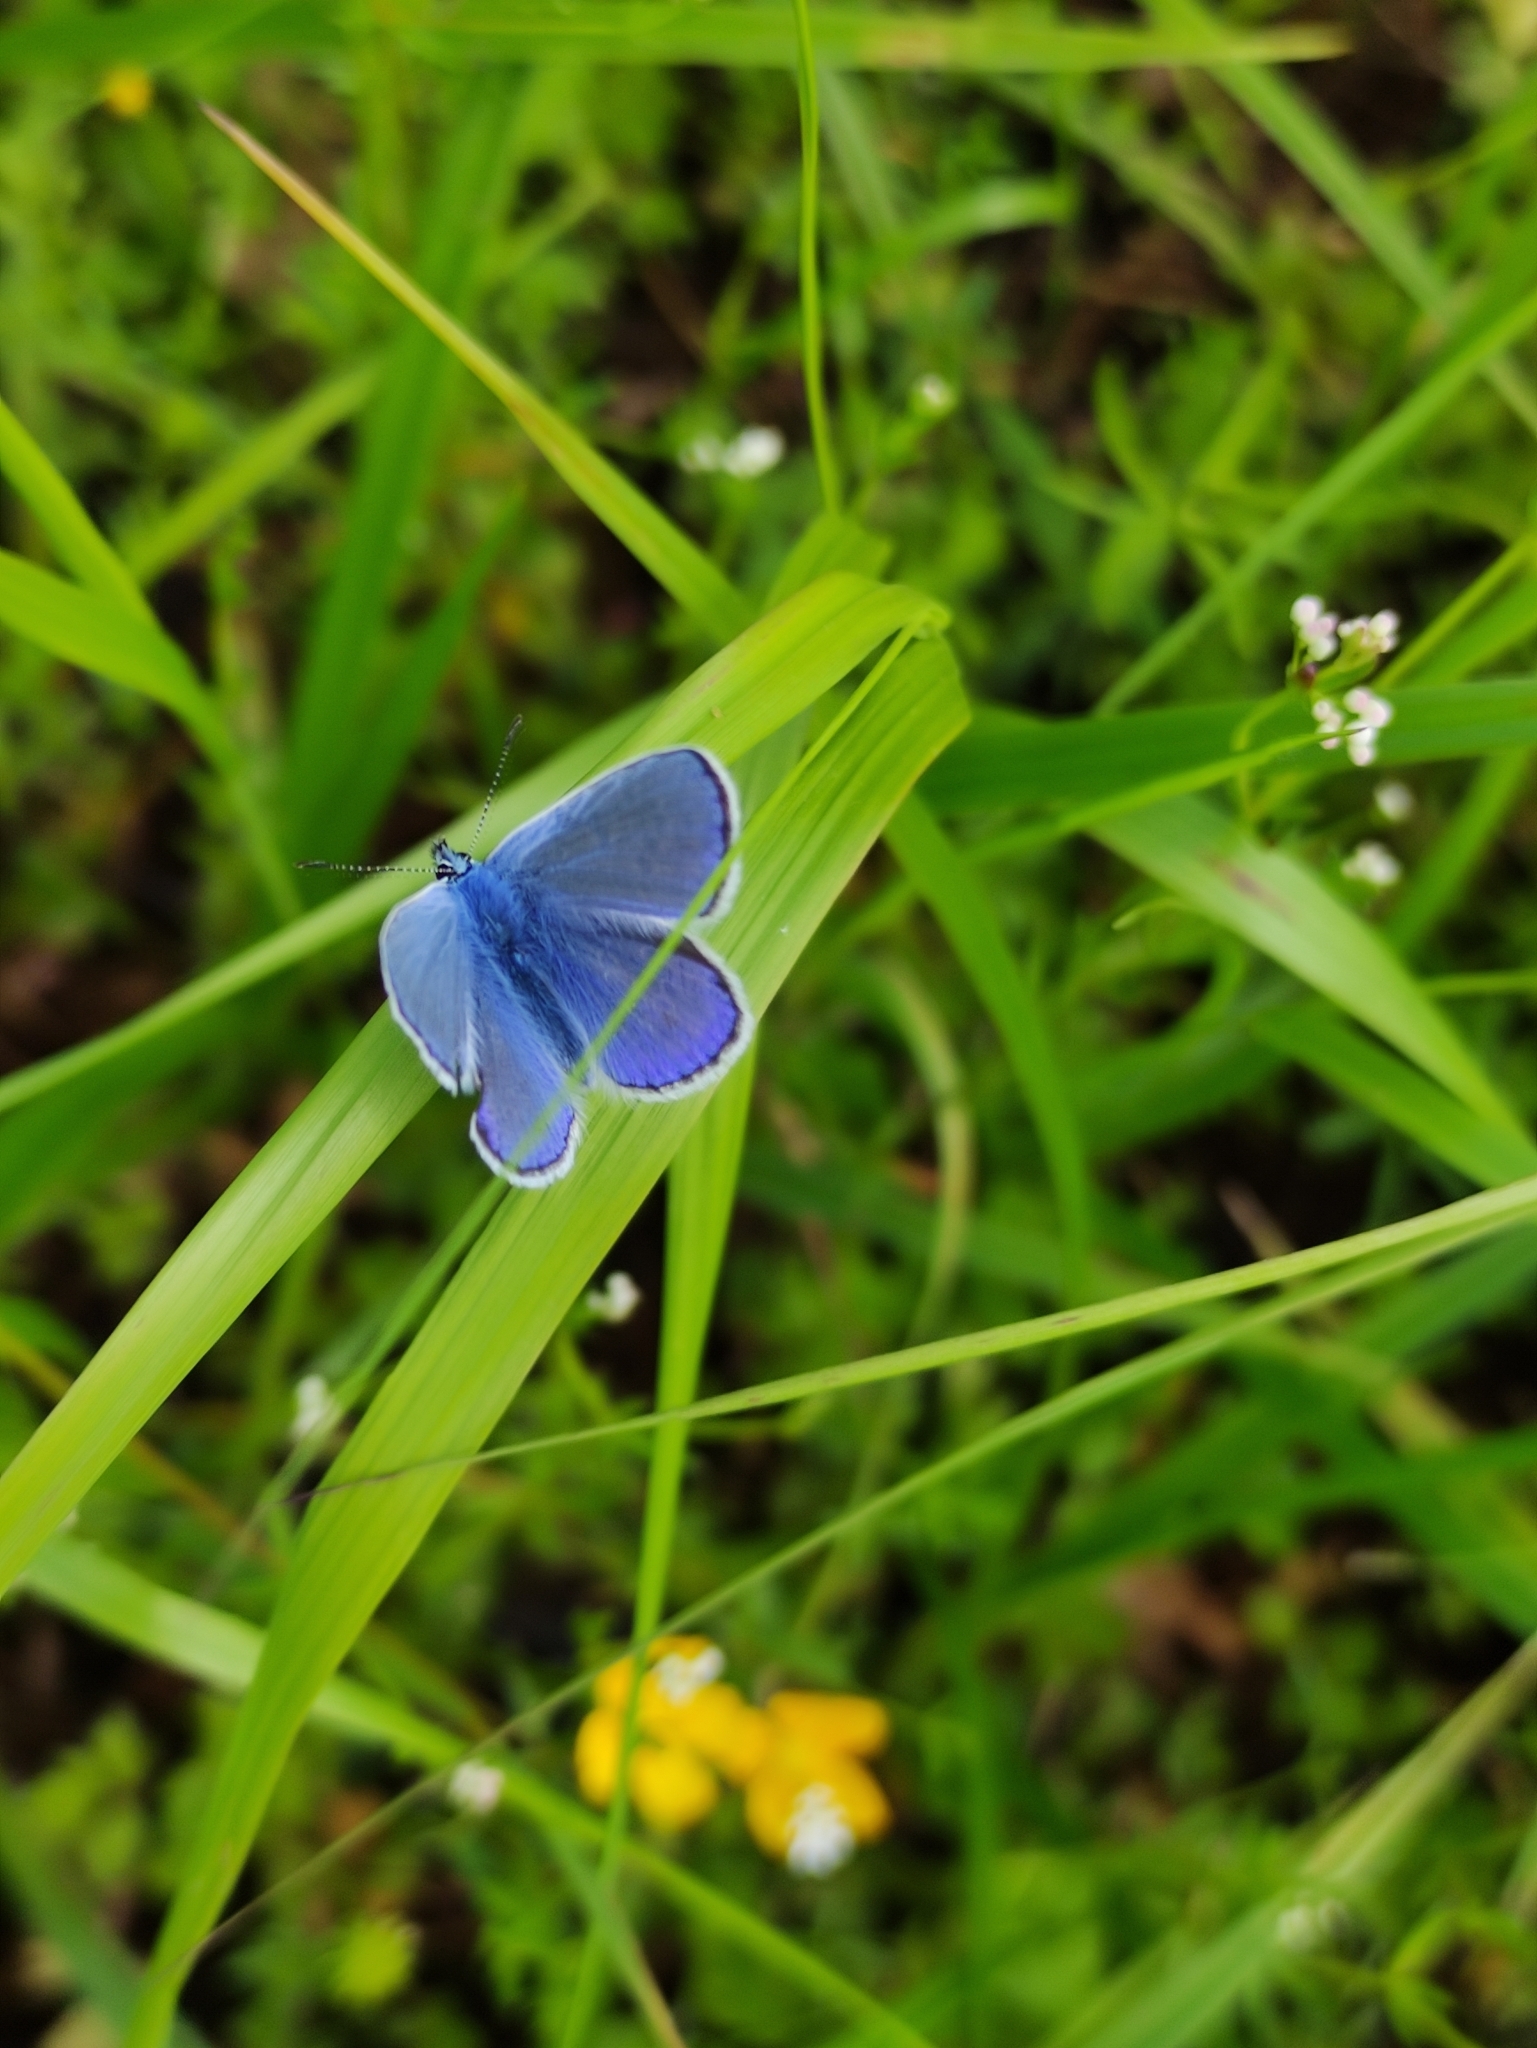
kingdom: Animalia
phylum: Arthropoda
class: Insecta
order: Lepidoptera
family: Lycaenidae
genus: Polyommatus
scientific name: Polyommatus icarus
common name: Common blue
